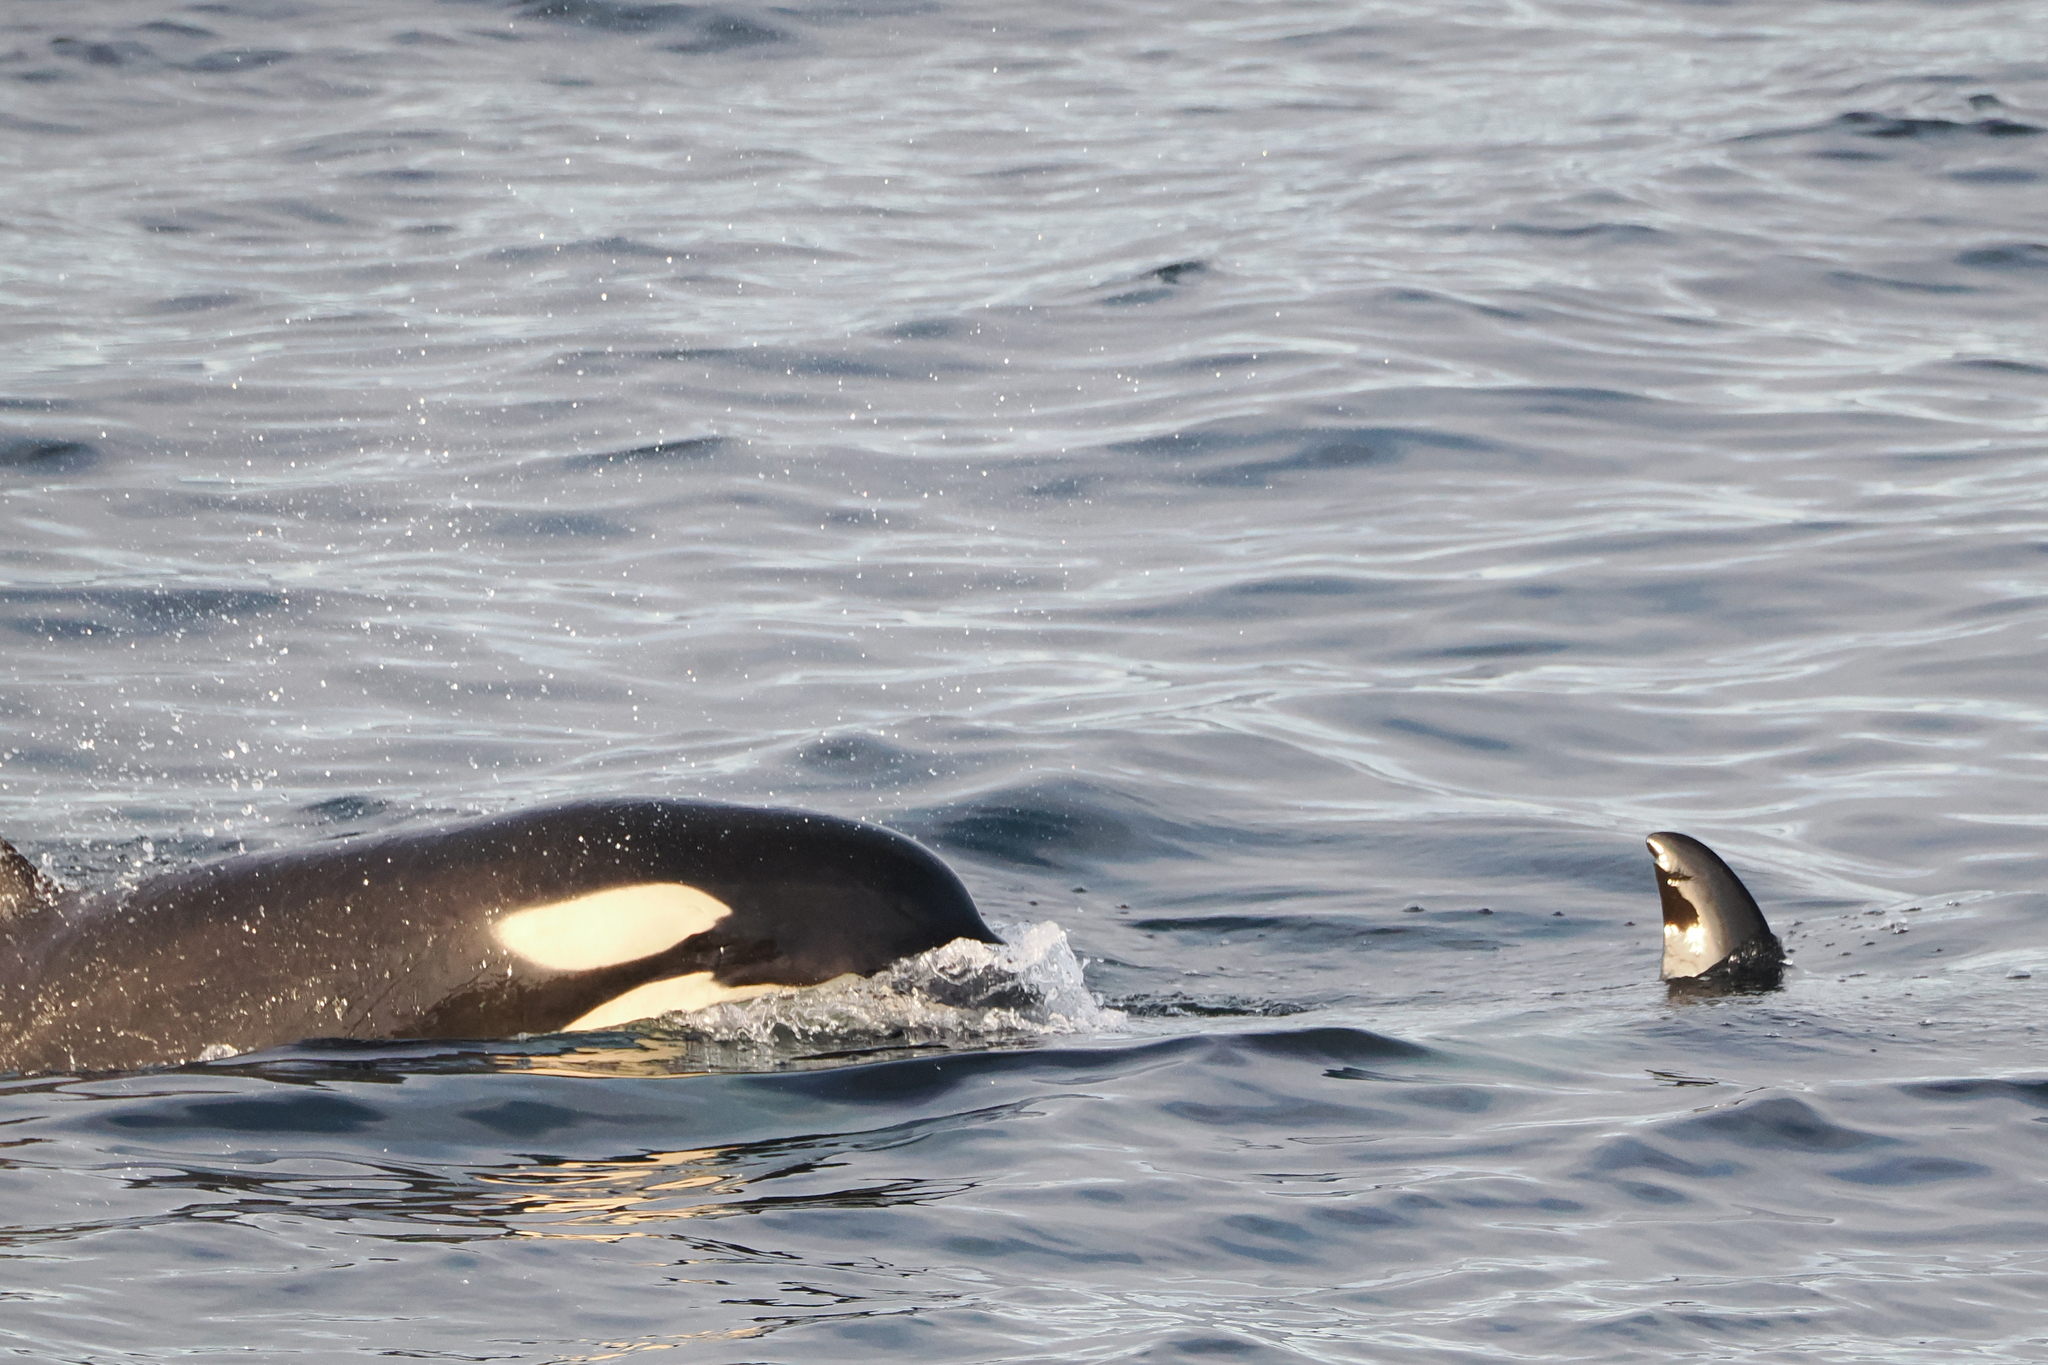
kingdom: Animalia
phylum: Chordata
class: Mammalia
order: Cetacea
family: Delphinidae
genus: Orcinus
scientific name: Orcinus orca
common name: Killer whale
